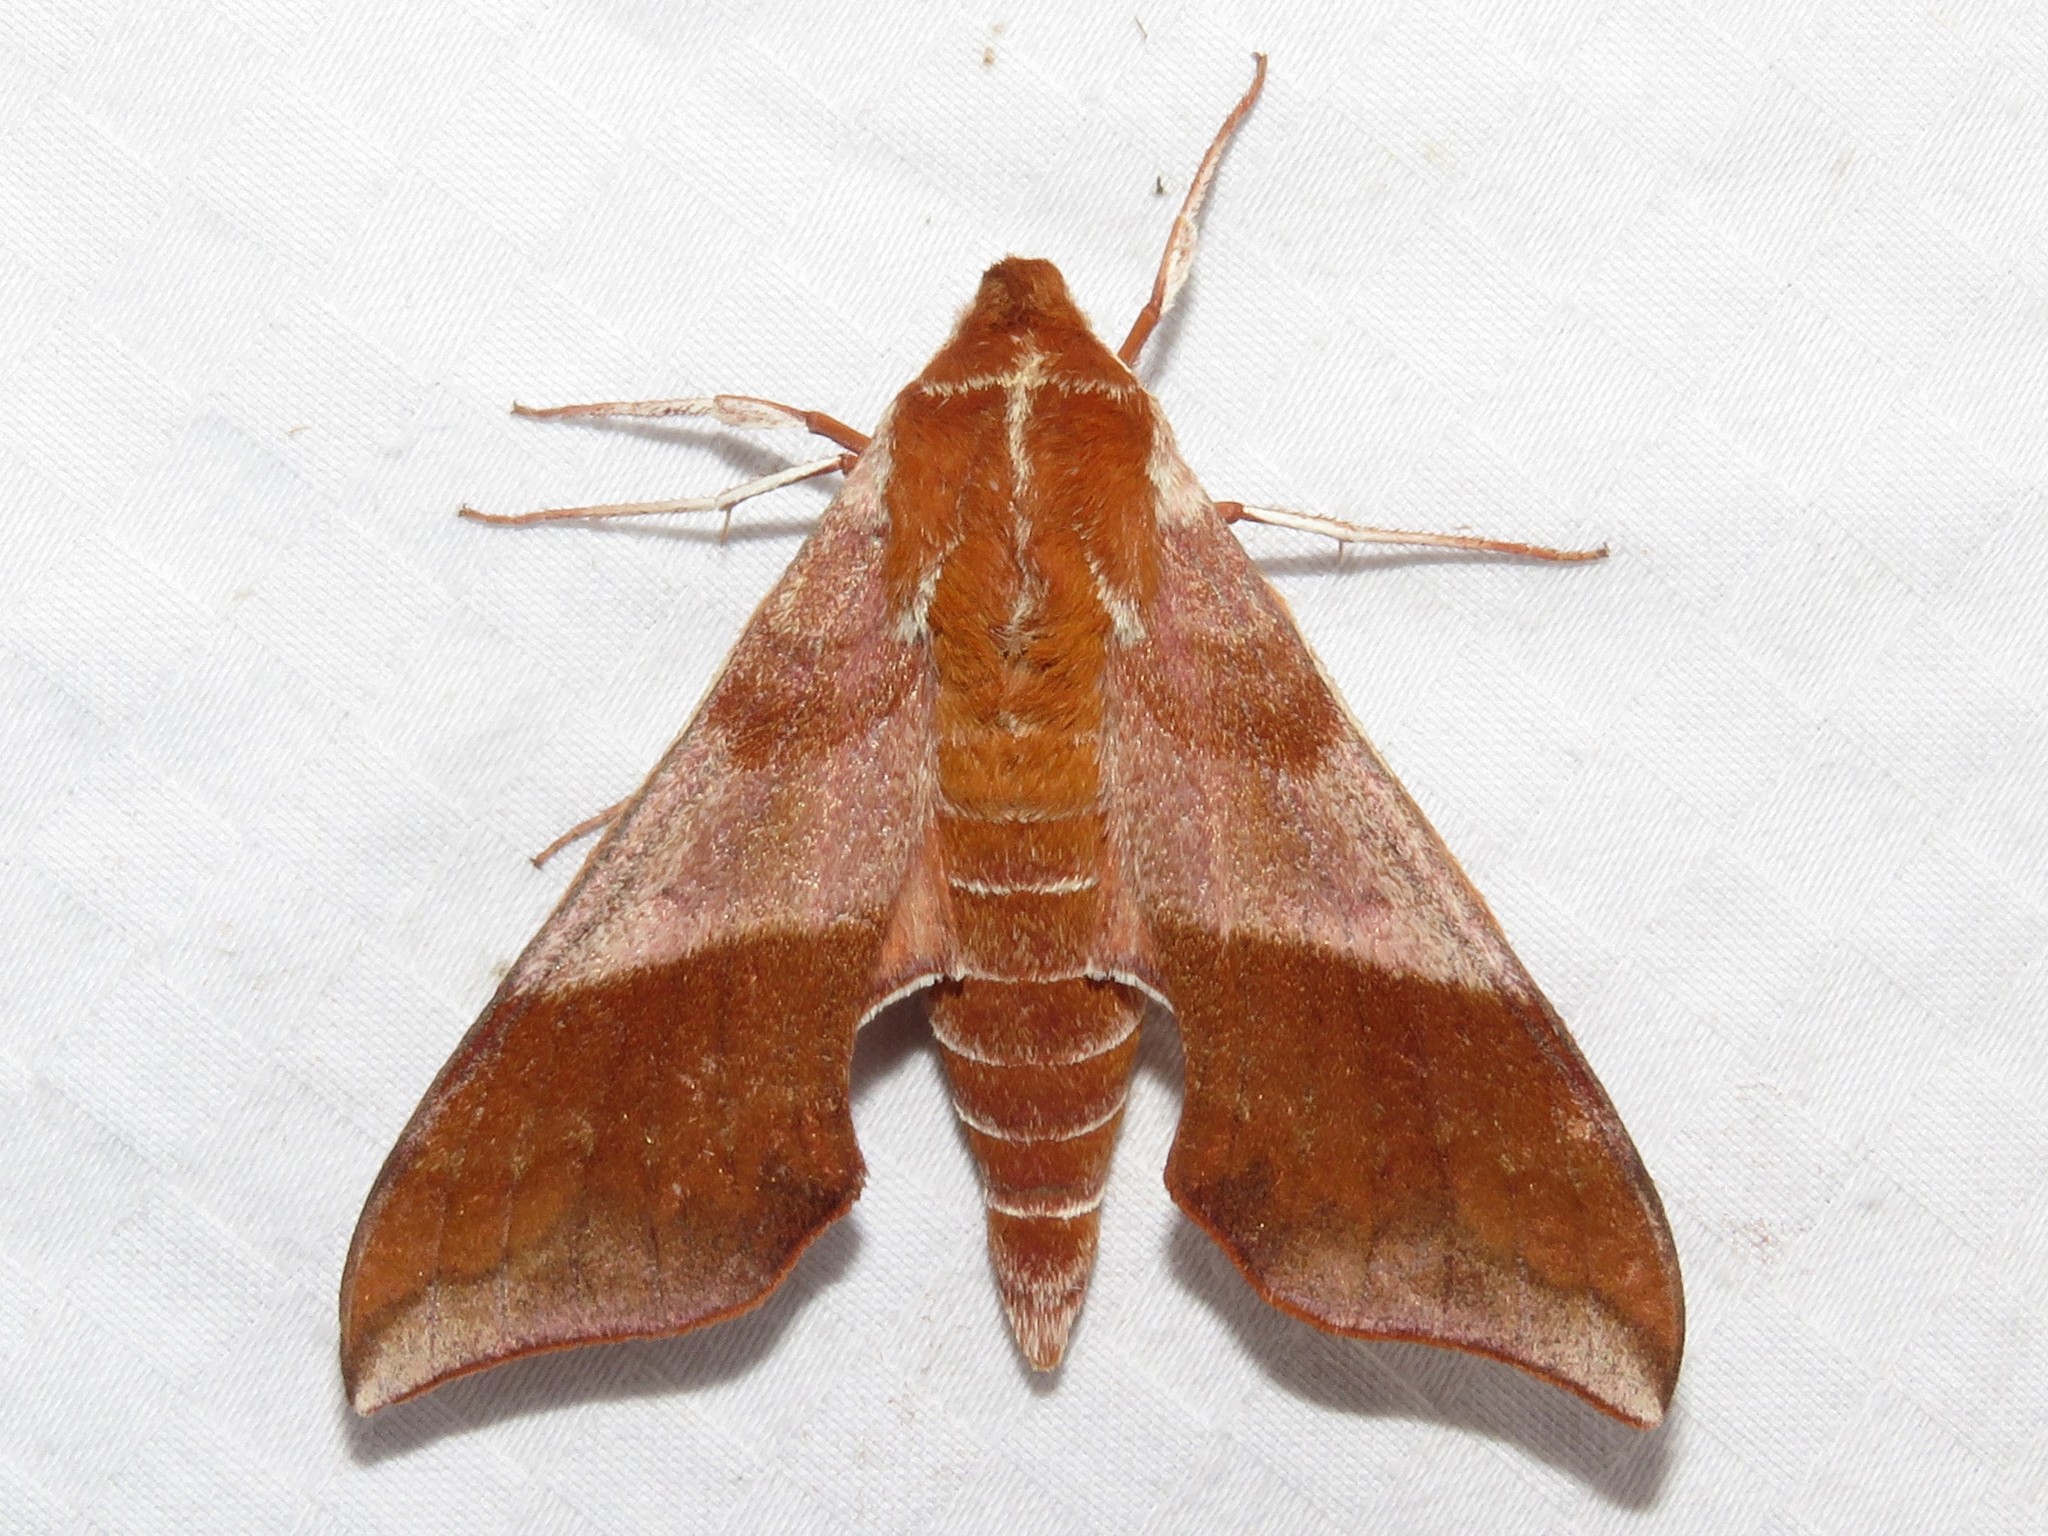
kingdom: Animalia
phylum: Arthropoda
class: Insecta
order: Lepidoptera
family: Sphingidae
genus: Darapsa
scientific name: Darapsa choerilus
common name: Azalea sphinx
